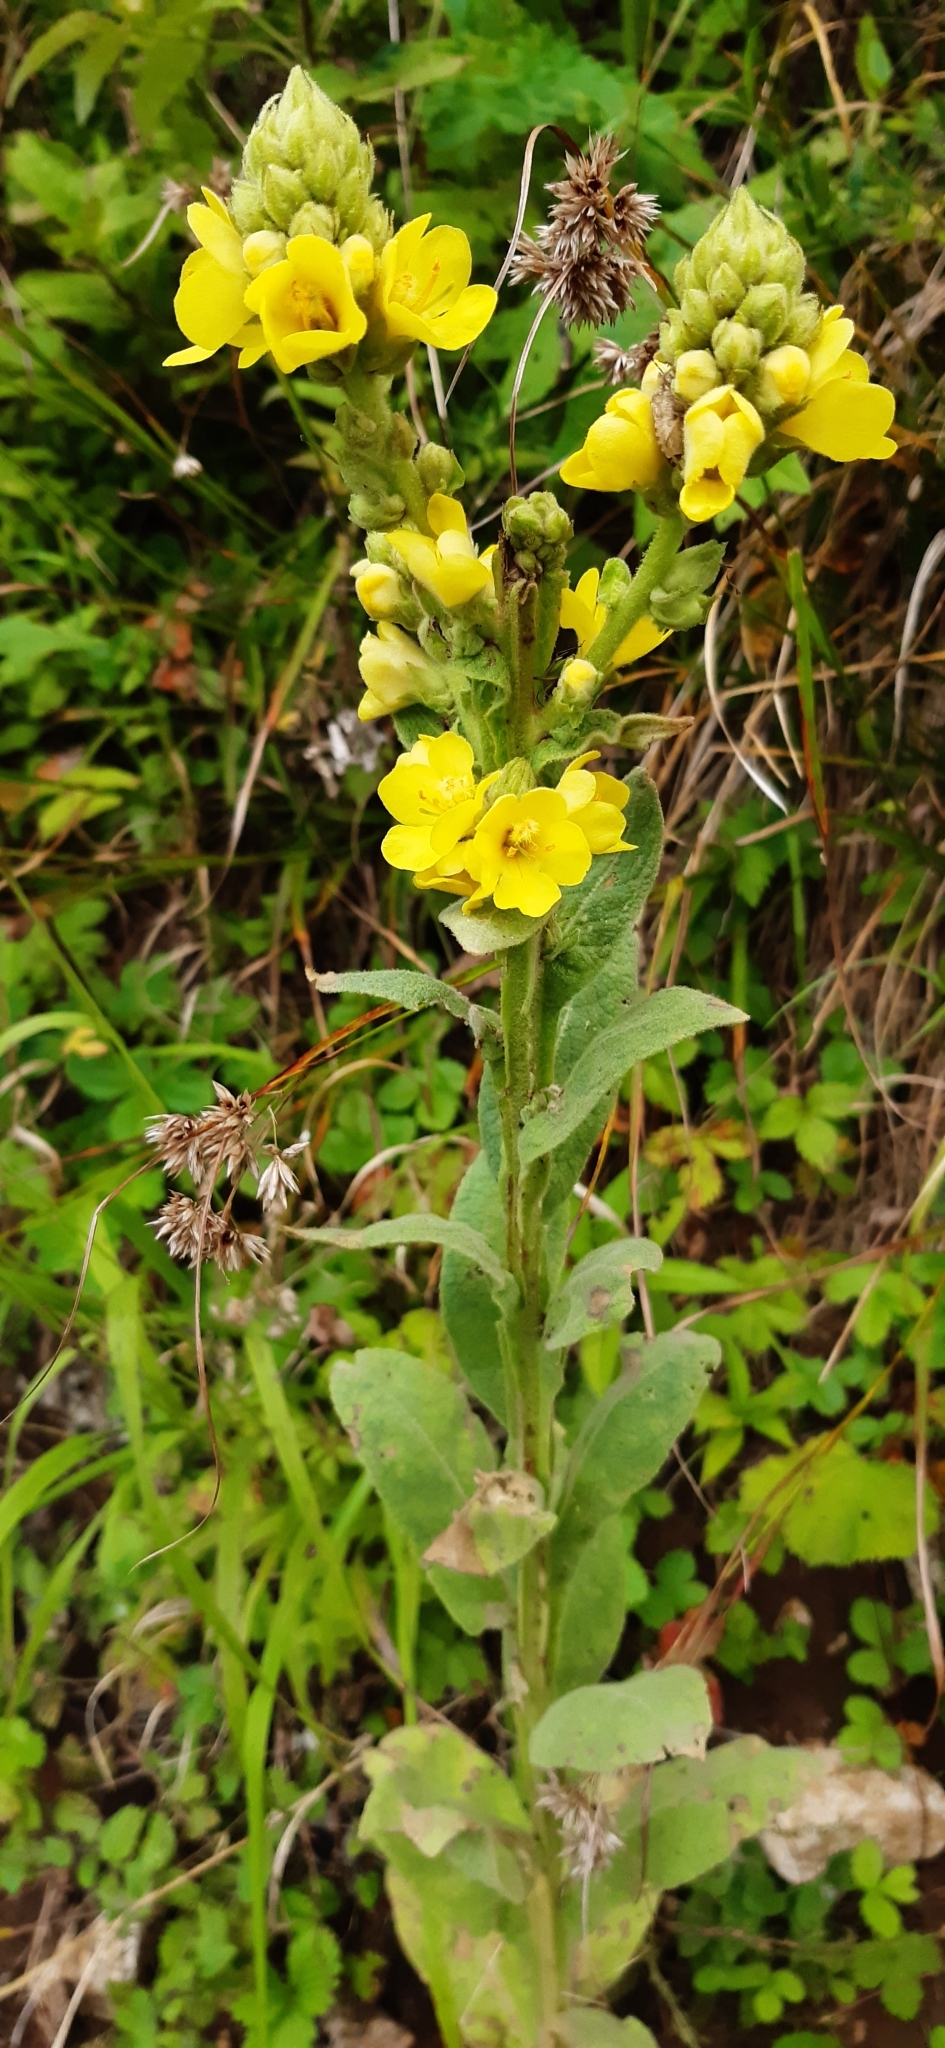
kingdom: Plantae
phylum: Tracheophyta
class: Magnoliopsida
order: Lamiales
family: Scrophulariaceae
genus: Verbascum
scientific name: Verbascum kerneri
